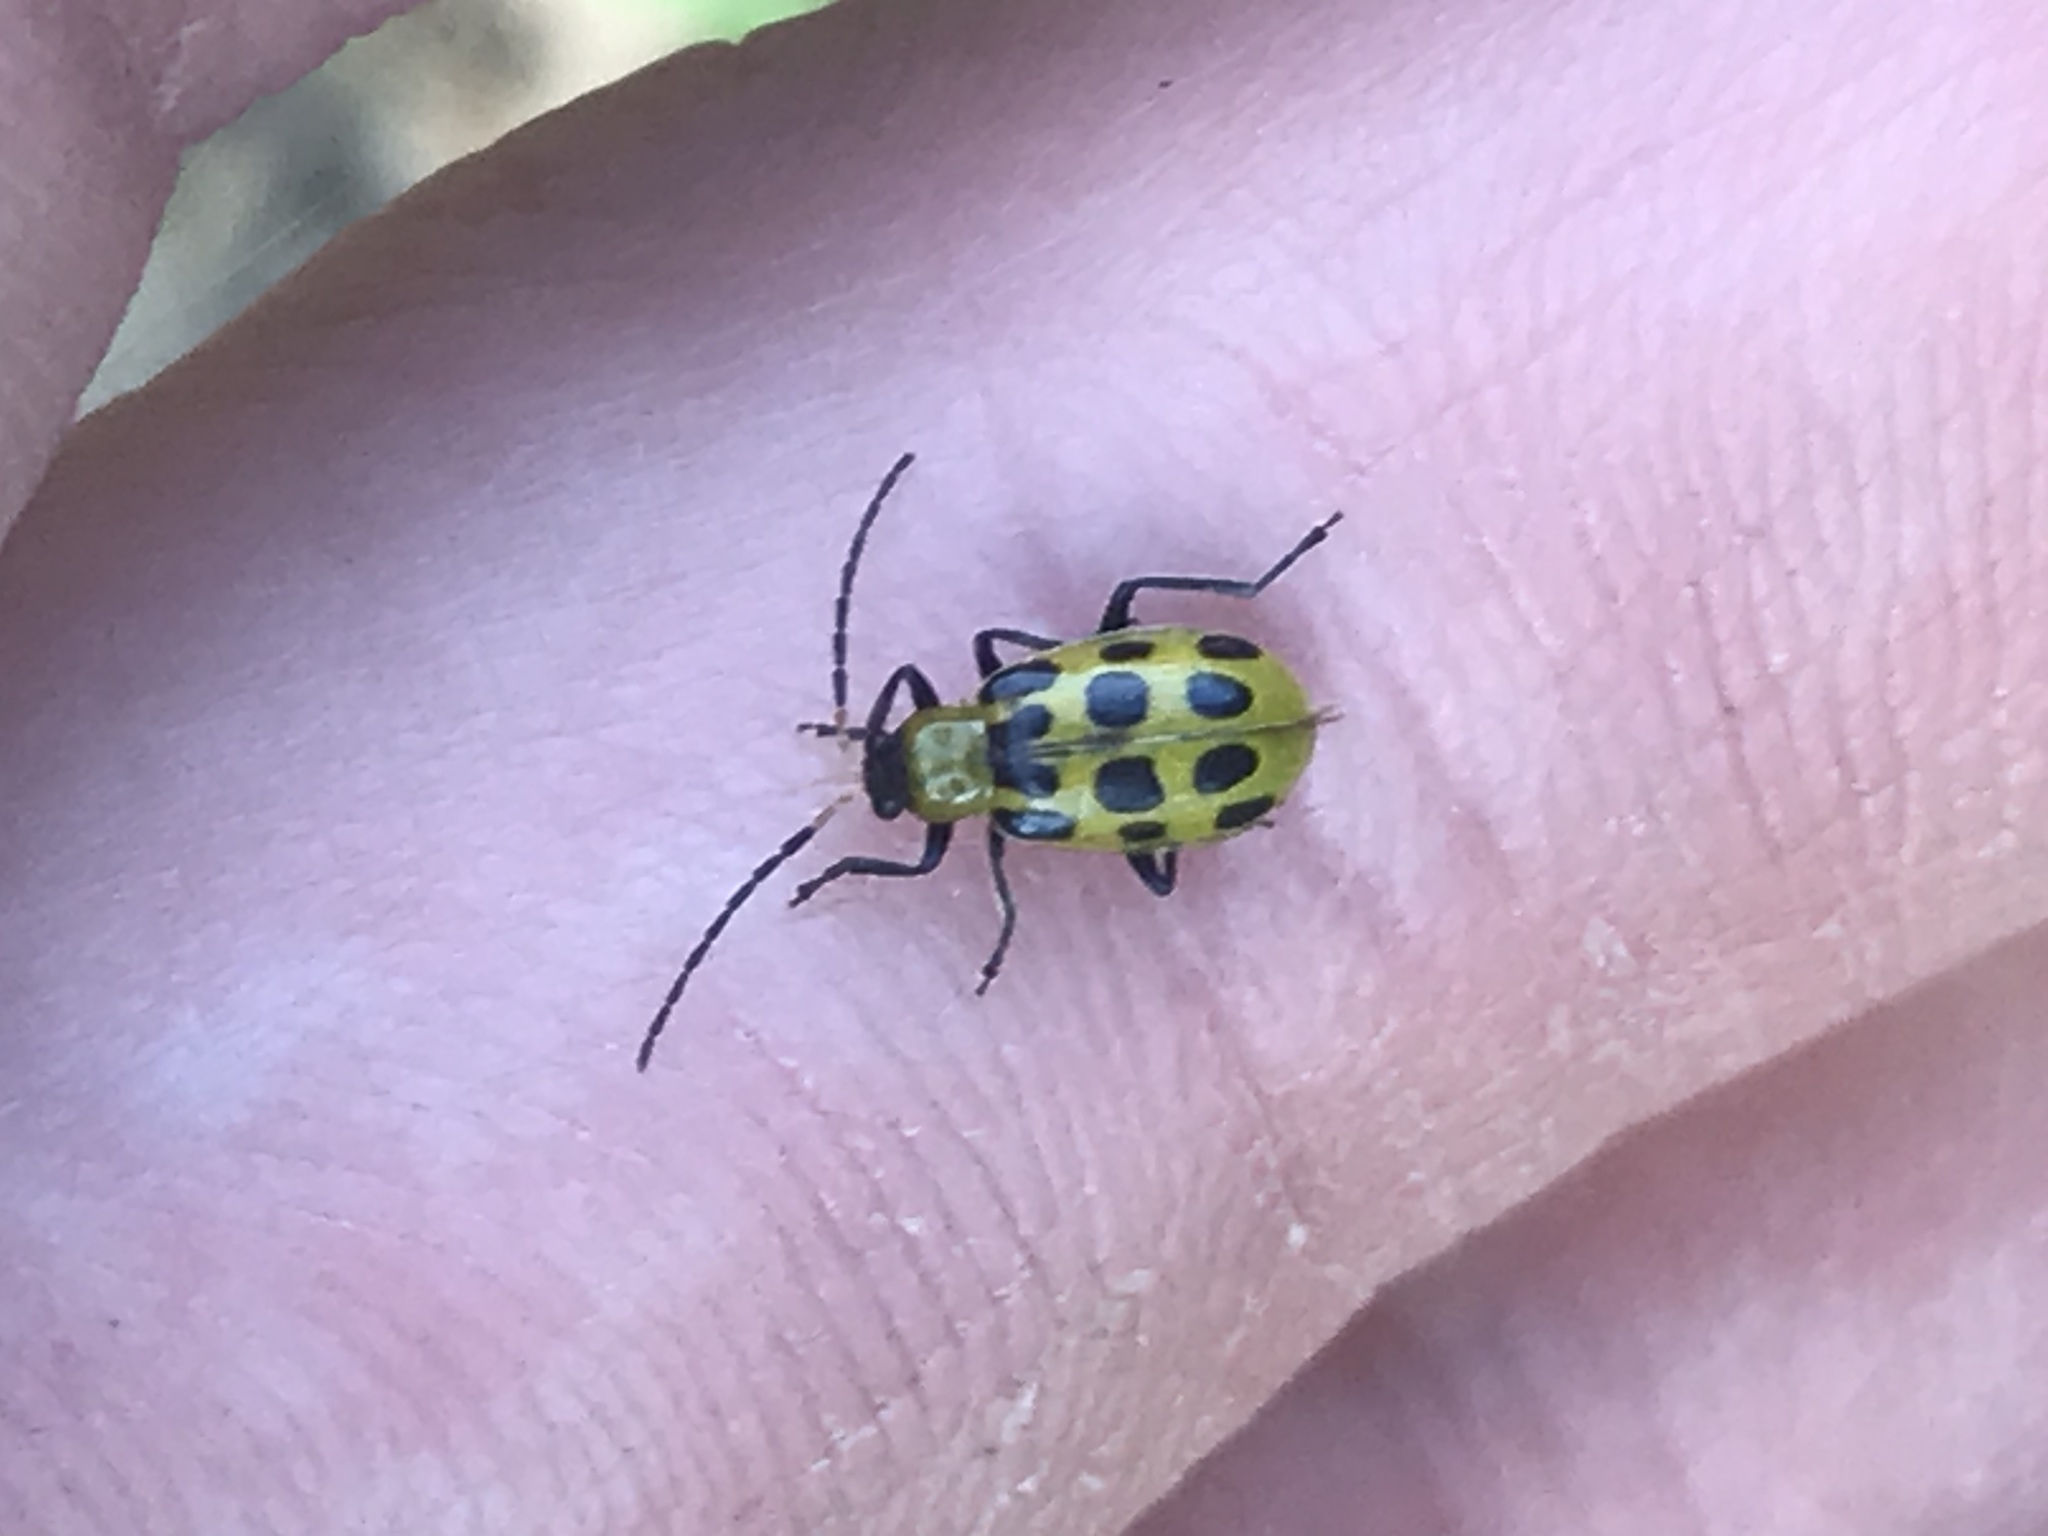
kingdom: Animalia
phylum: Arthropoda
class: Insecta
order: Coleoptera
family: Chrysomelidae
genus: Diabrotica
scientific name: Diabrotica undecimpunctata
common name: Spotted cucumber beetle
